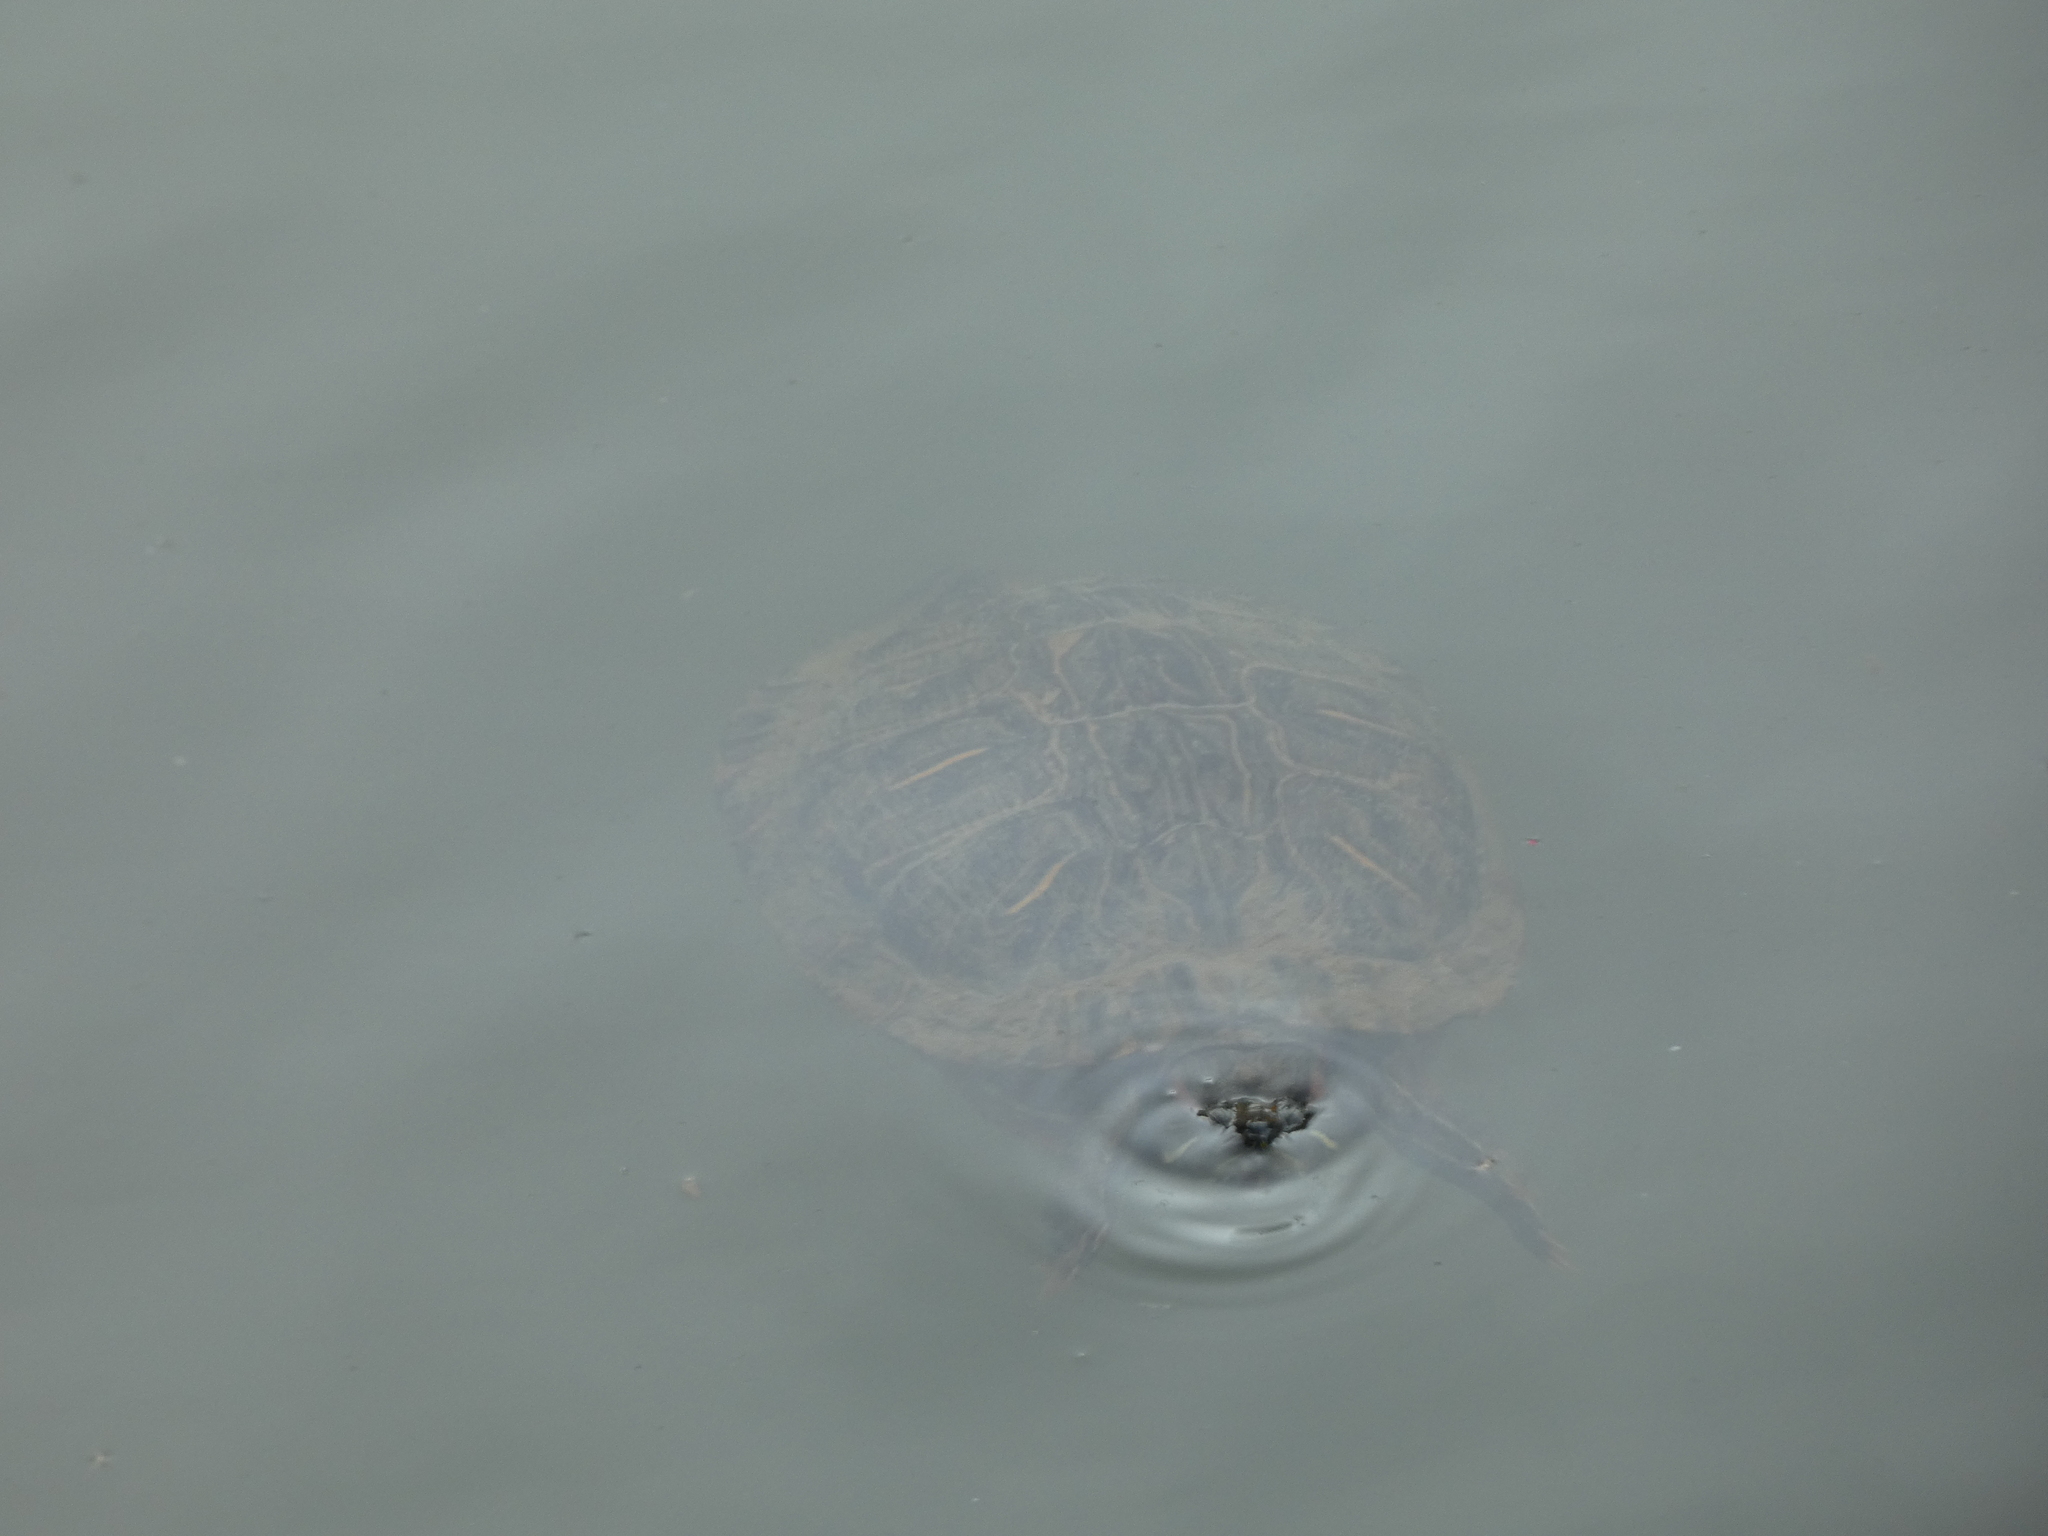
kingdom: Animalia
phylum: Chordata
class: Testudines
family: Emydidae
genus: Trachemys
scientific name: Trachemys scripta
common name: Slider
